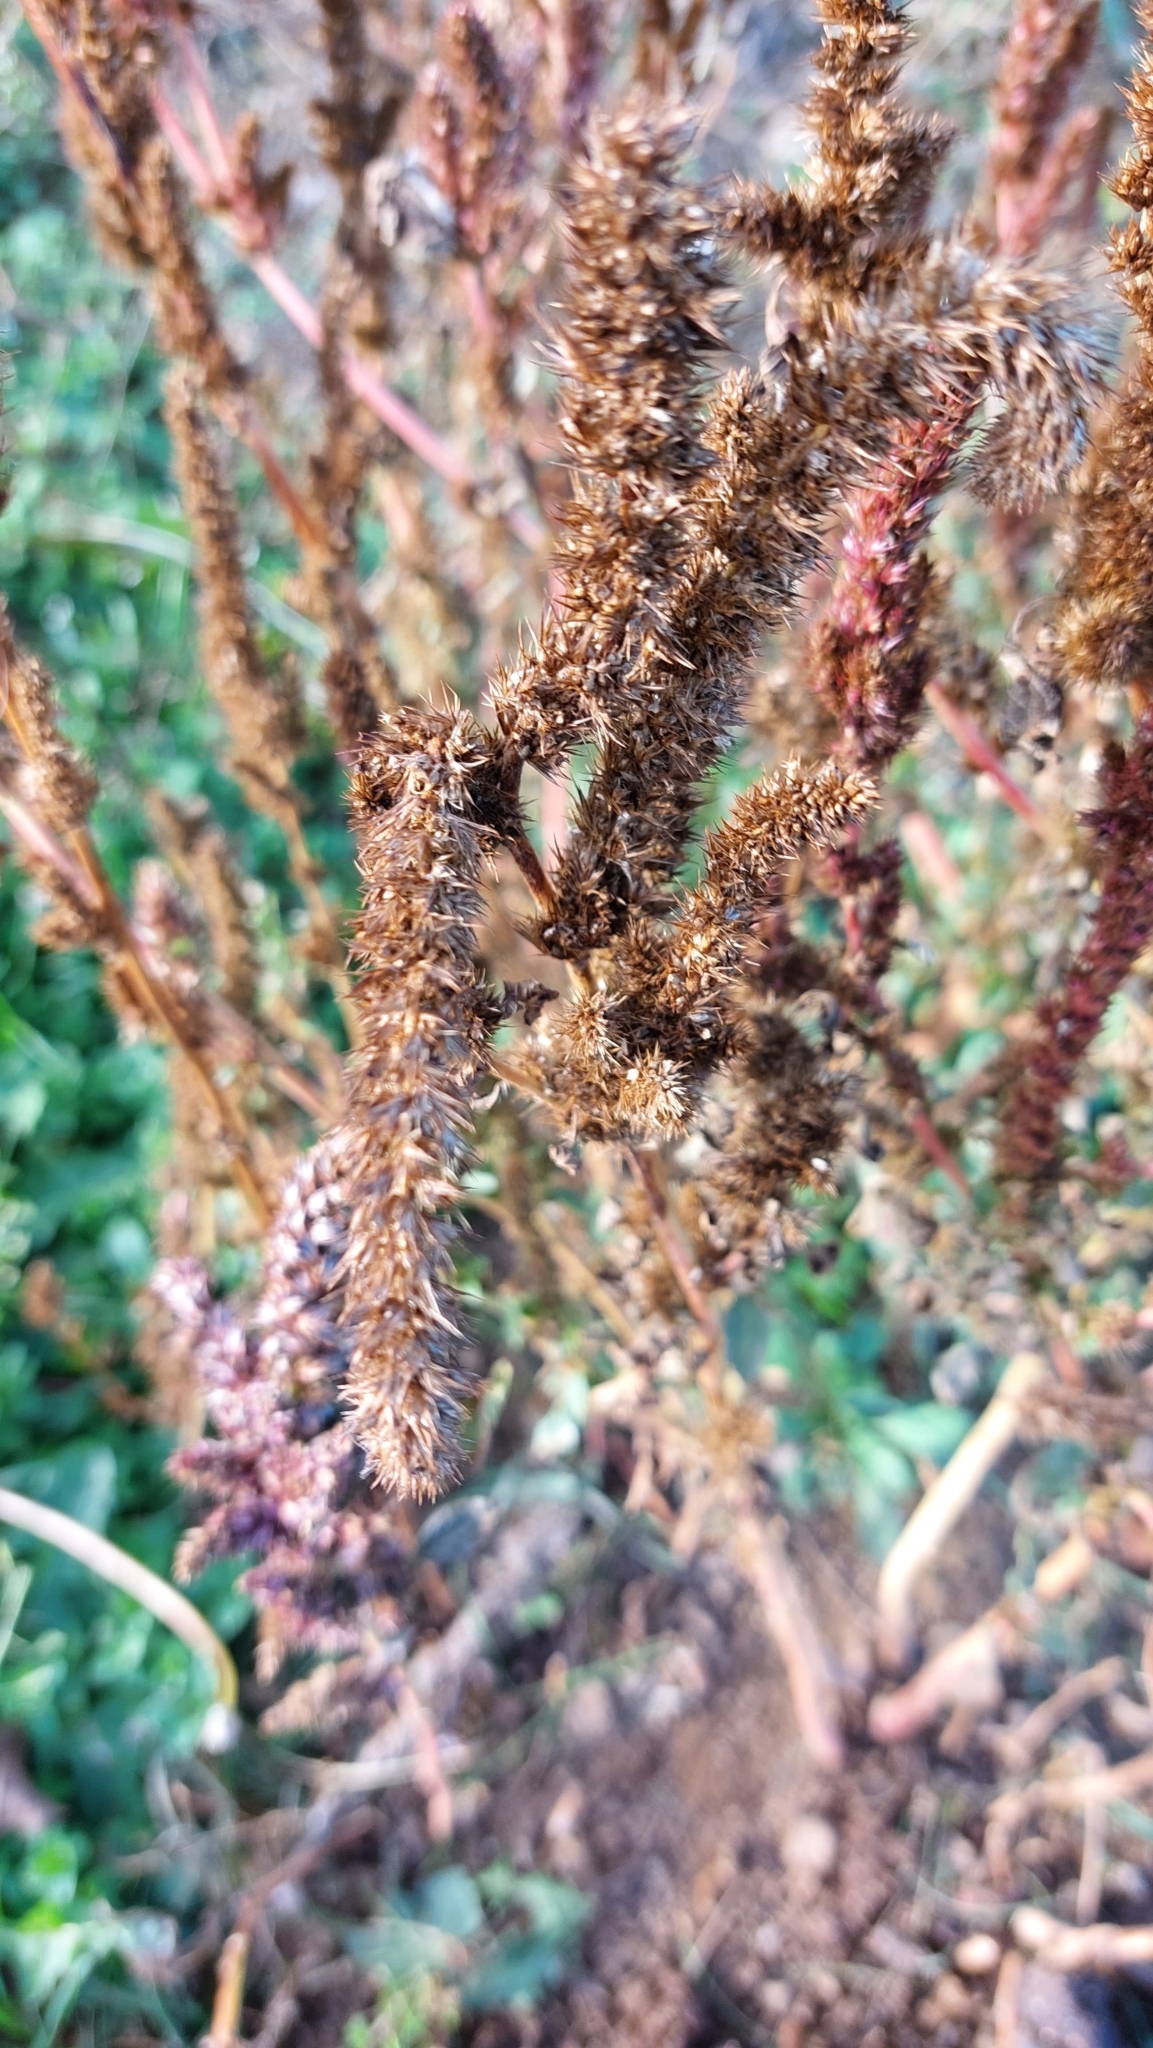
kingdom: Plantae
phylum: Tracheophyta
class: Magnoliopsida
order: Caryophyllales
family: Amaranthaceae
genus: Amaranthus
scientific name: Amaranthus retroflexus
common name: Redroot amaranth
